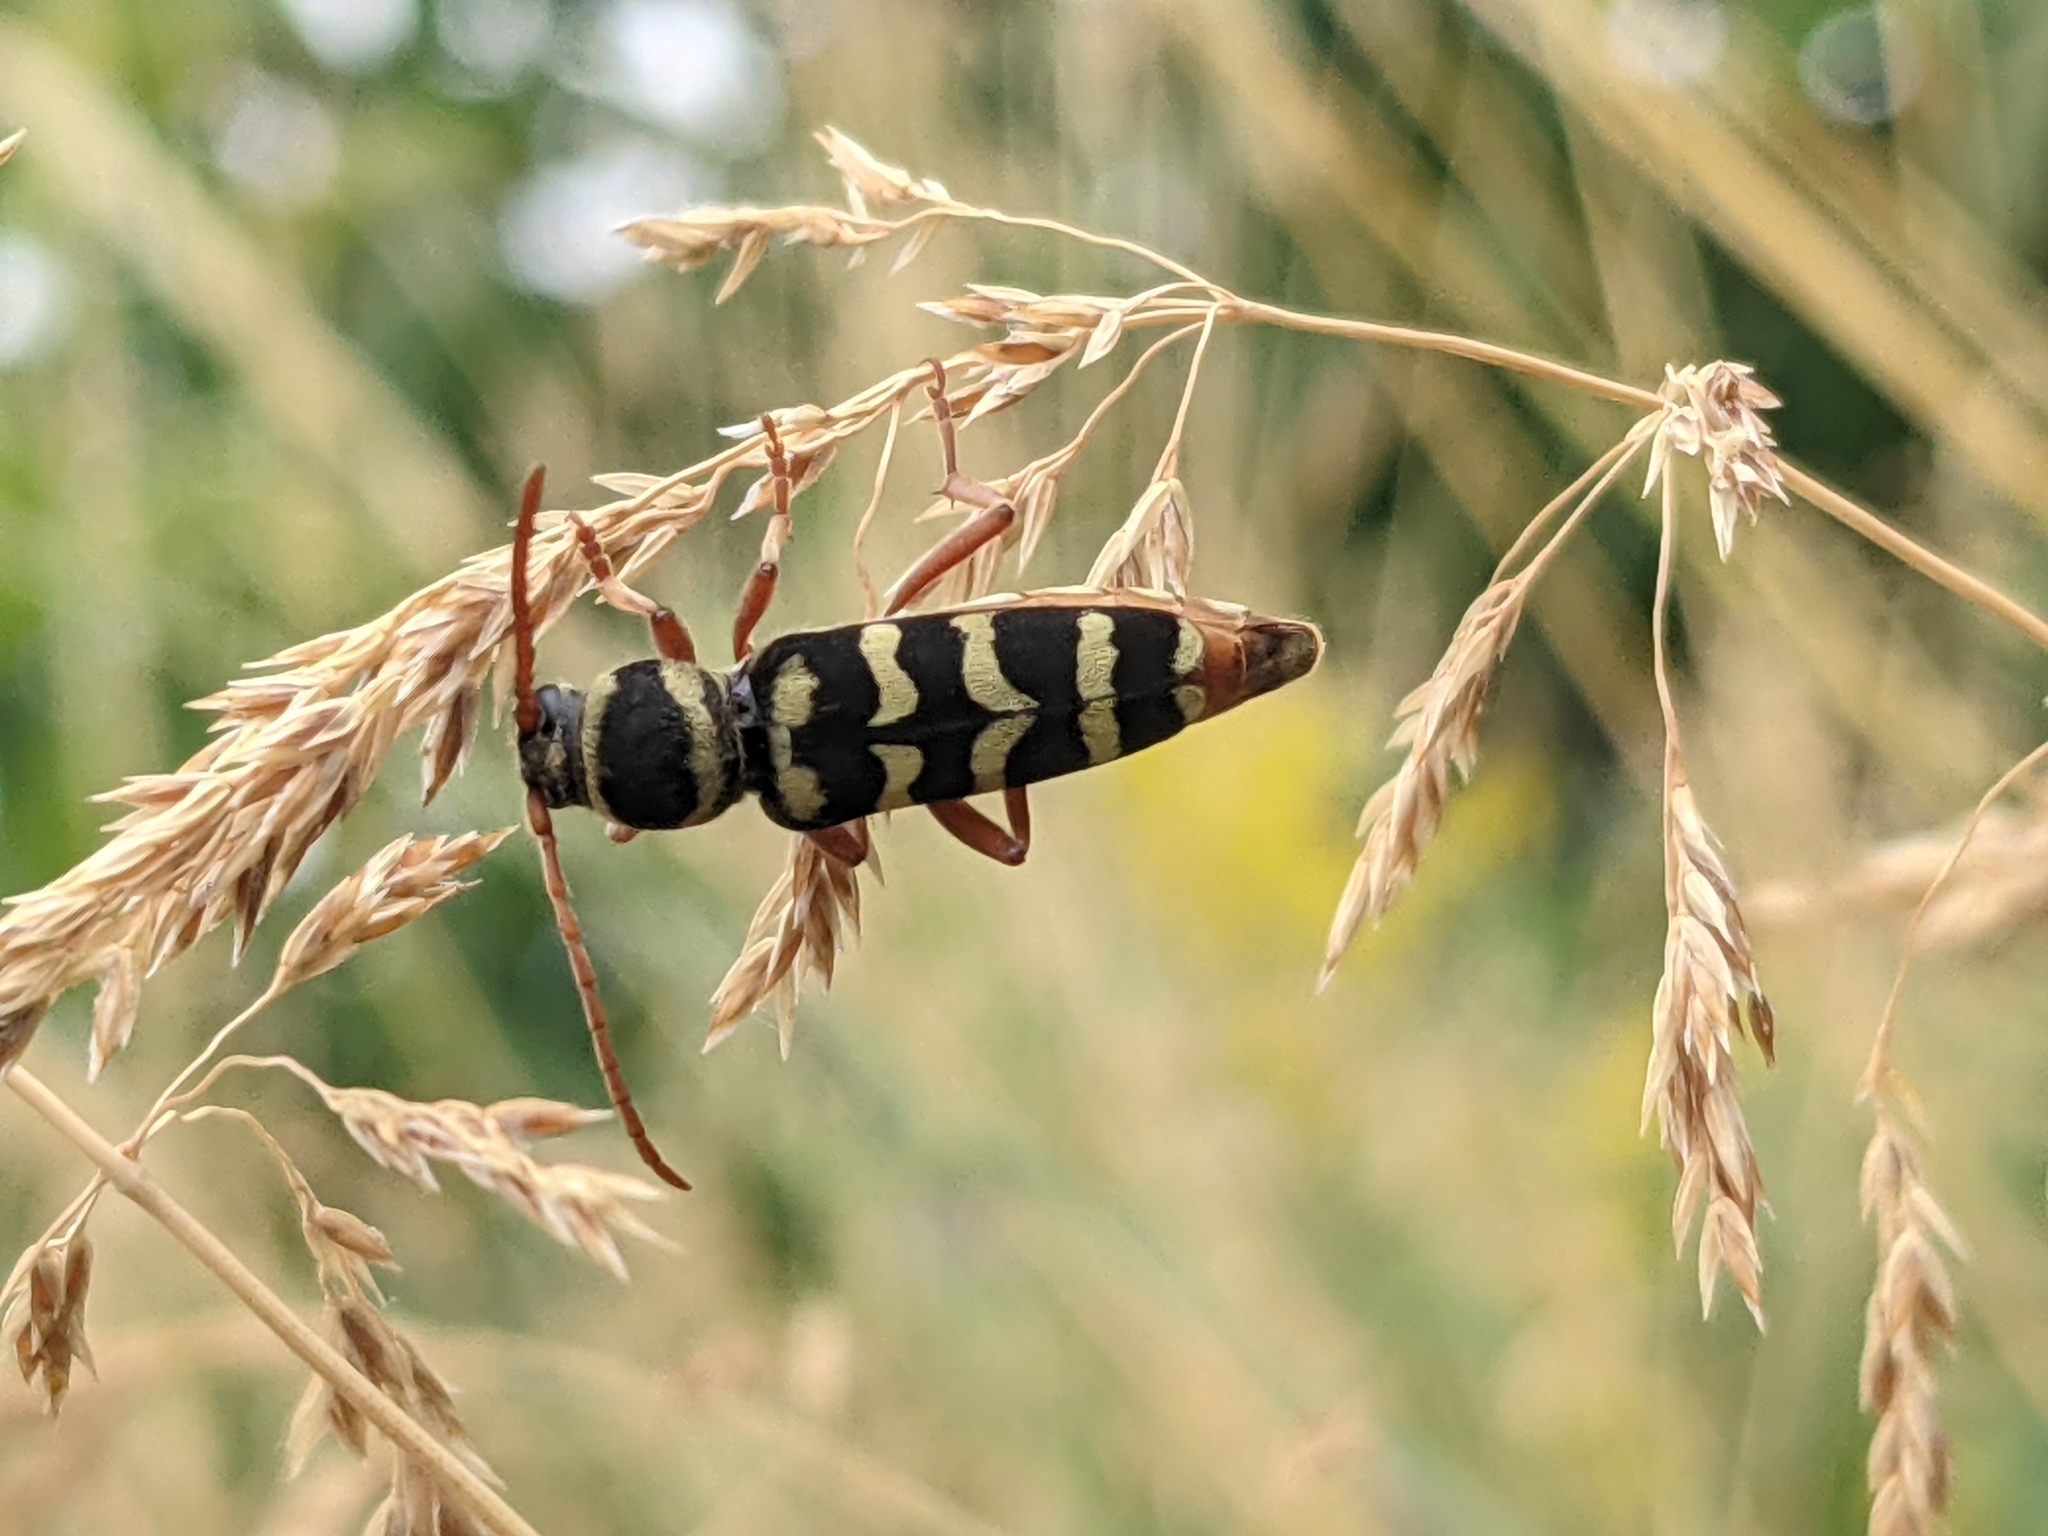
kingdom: Animalia
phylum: Arthropoda
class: Insecta
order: Coleoptera
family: Cerambycidae
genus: Plagionotus
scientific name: Plagionotus floralis
